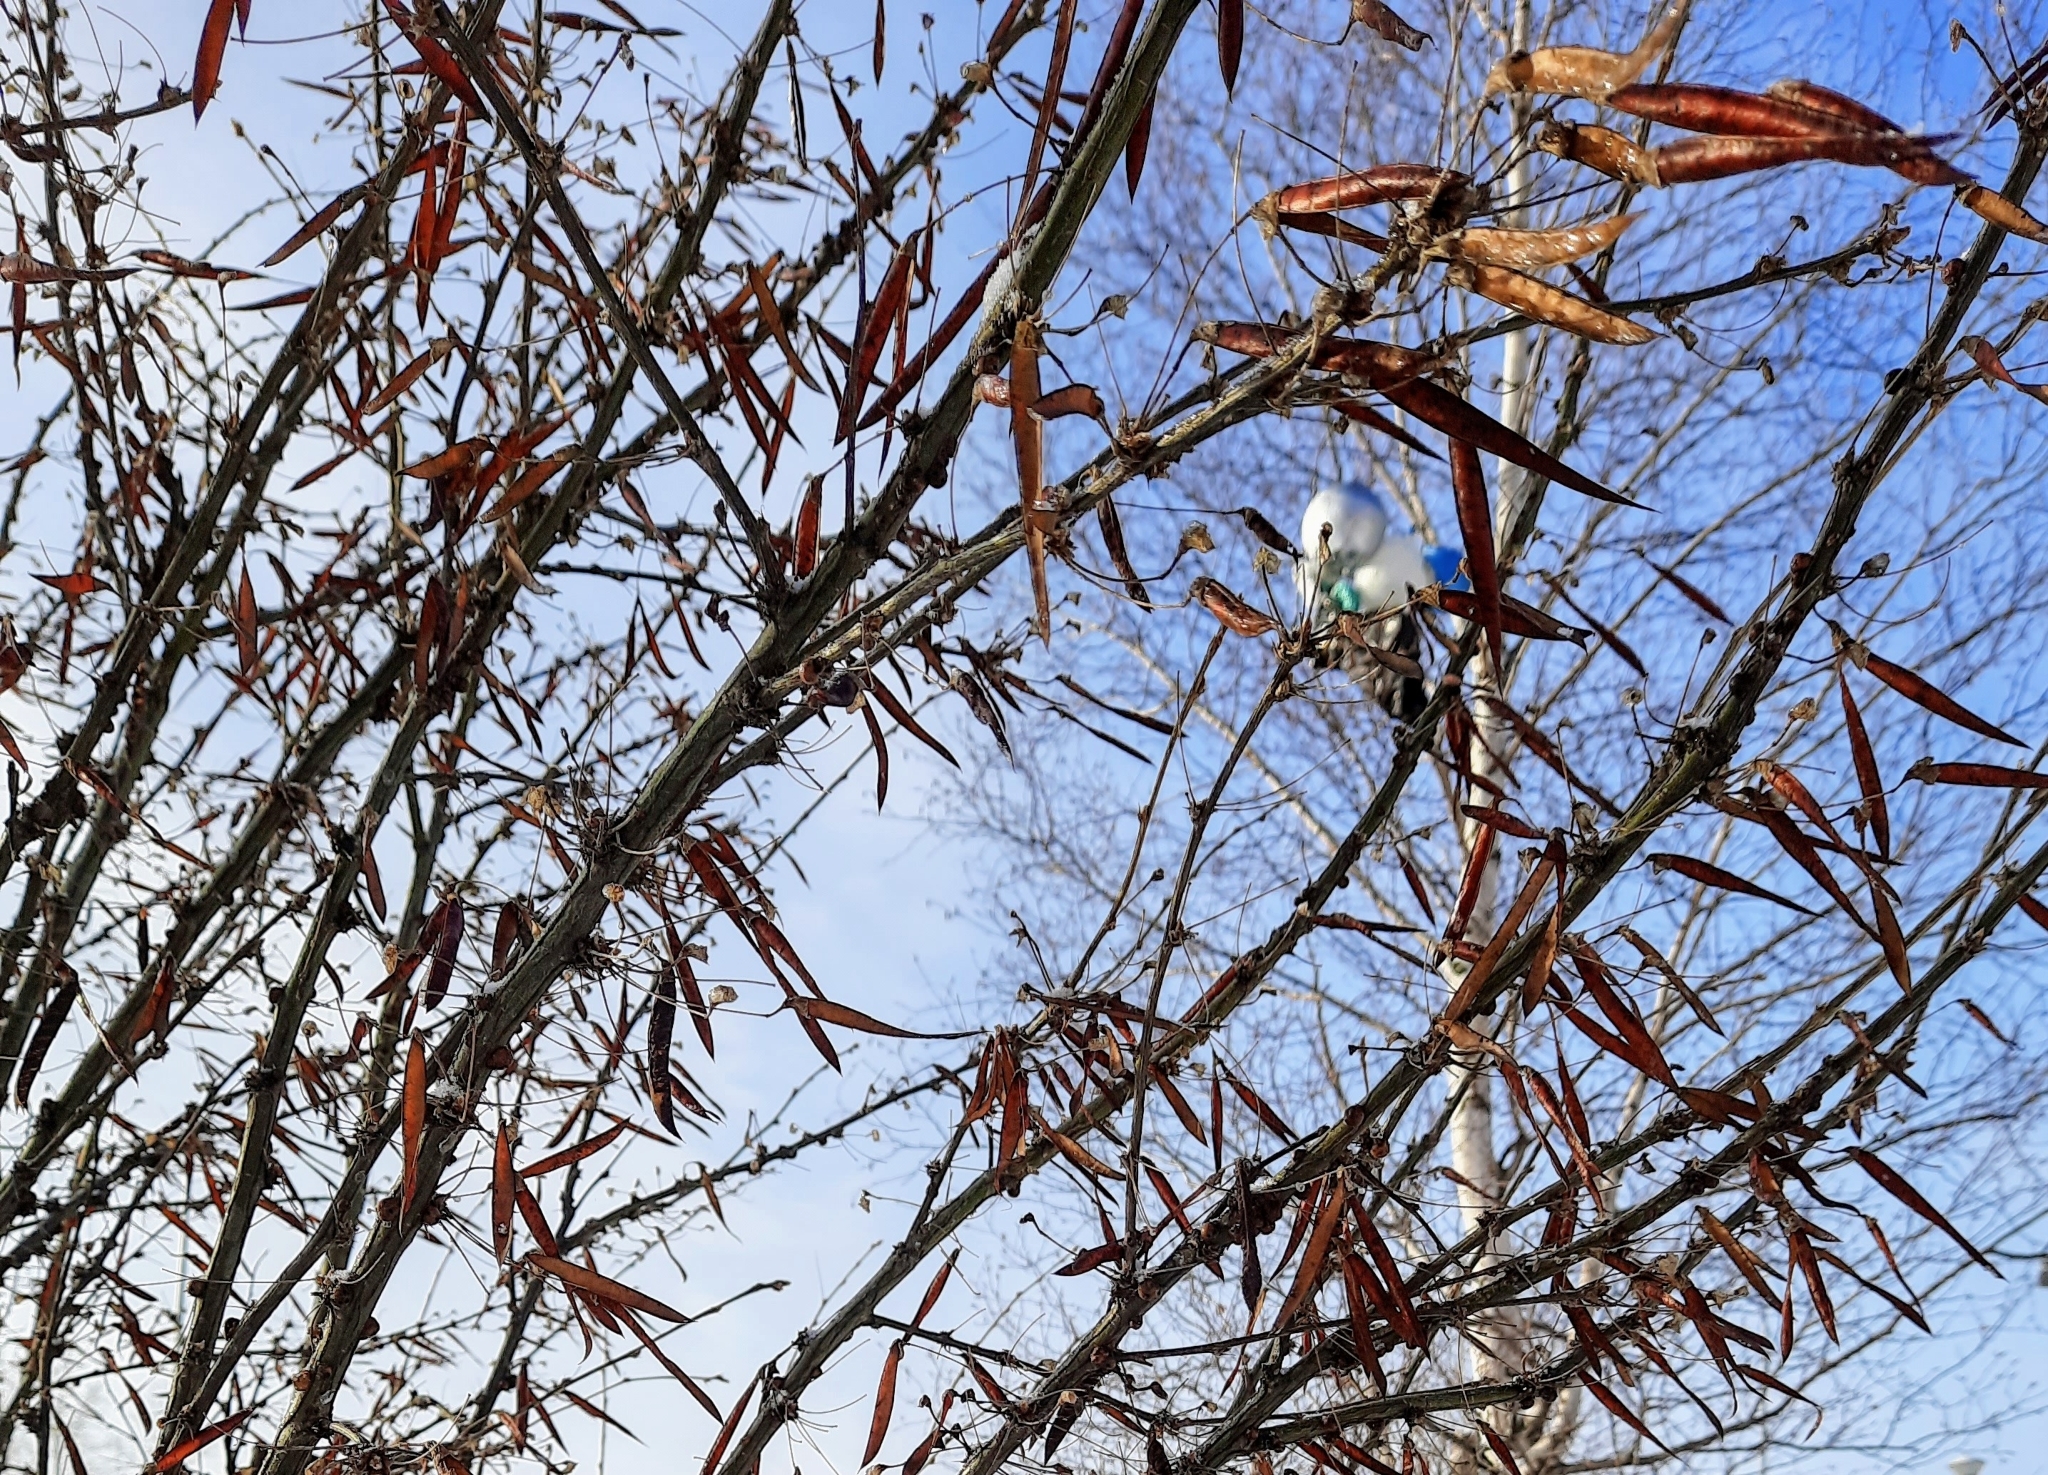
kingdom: Plantae
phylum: Tracheophyta
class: Magnoliopsida
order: Fabales
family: Fabaceae
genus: Caragana
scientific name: Caragana arborescens
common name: Siberian peashrub
